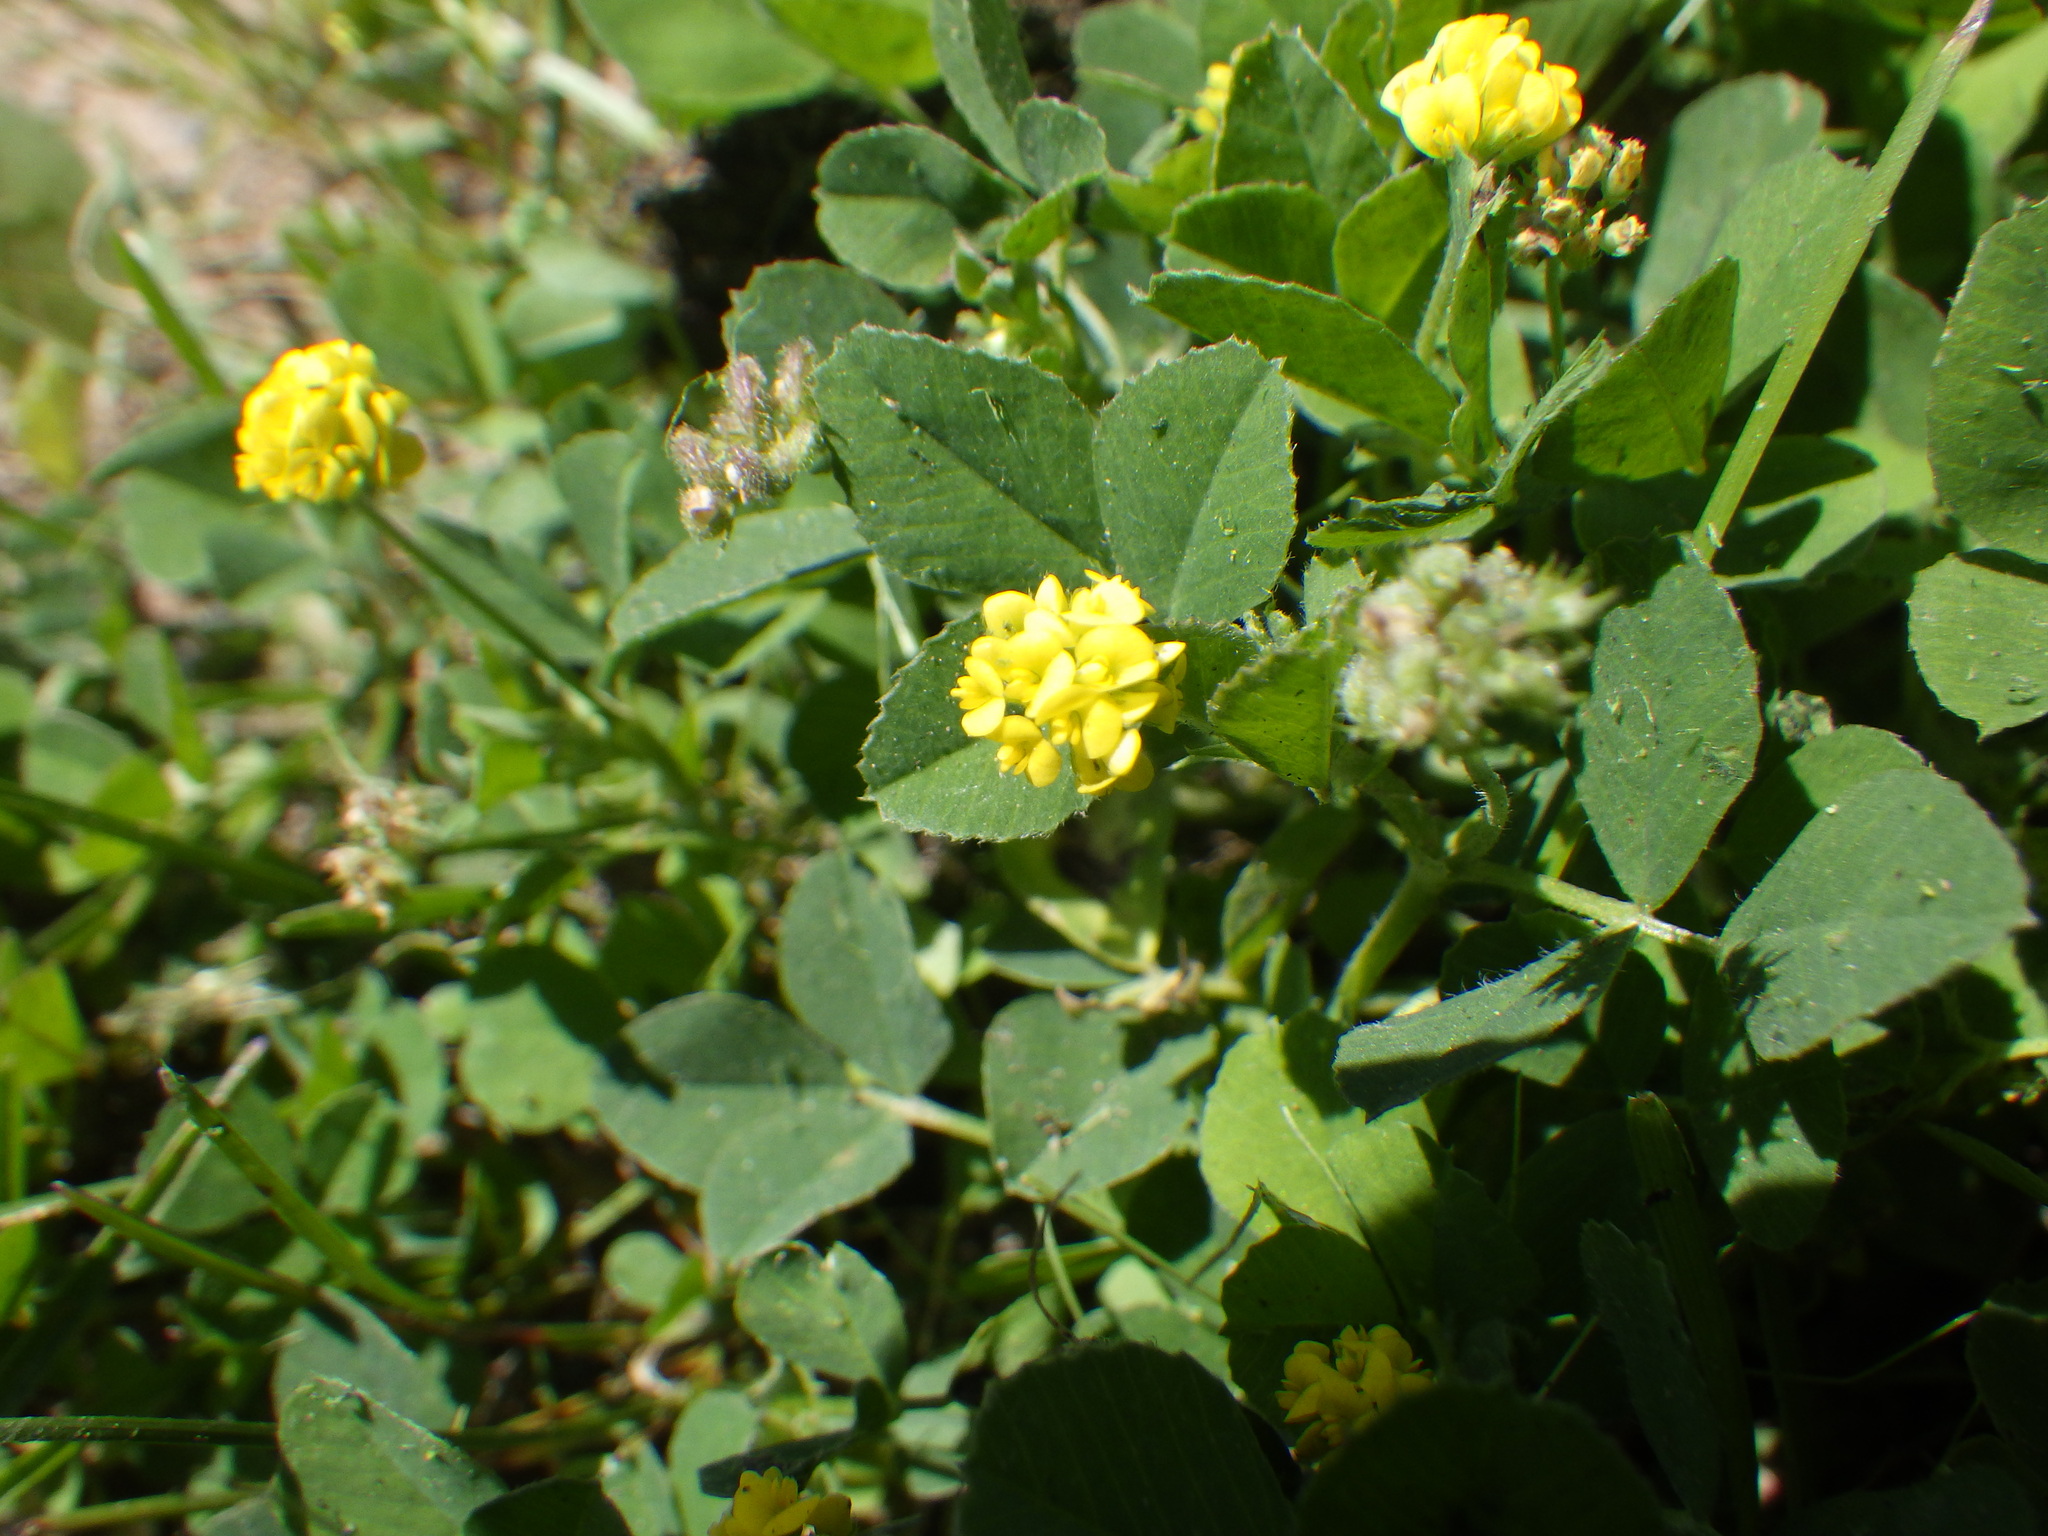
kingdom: Plantae
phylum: Tracheophyta
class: Magnoliopsida
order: Fabales
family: Fabaceae
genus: Medicago
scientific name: Medicago lupulina
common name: Black medick
